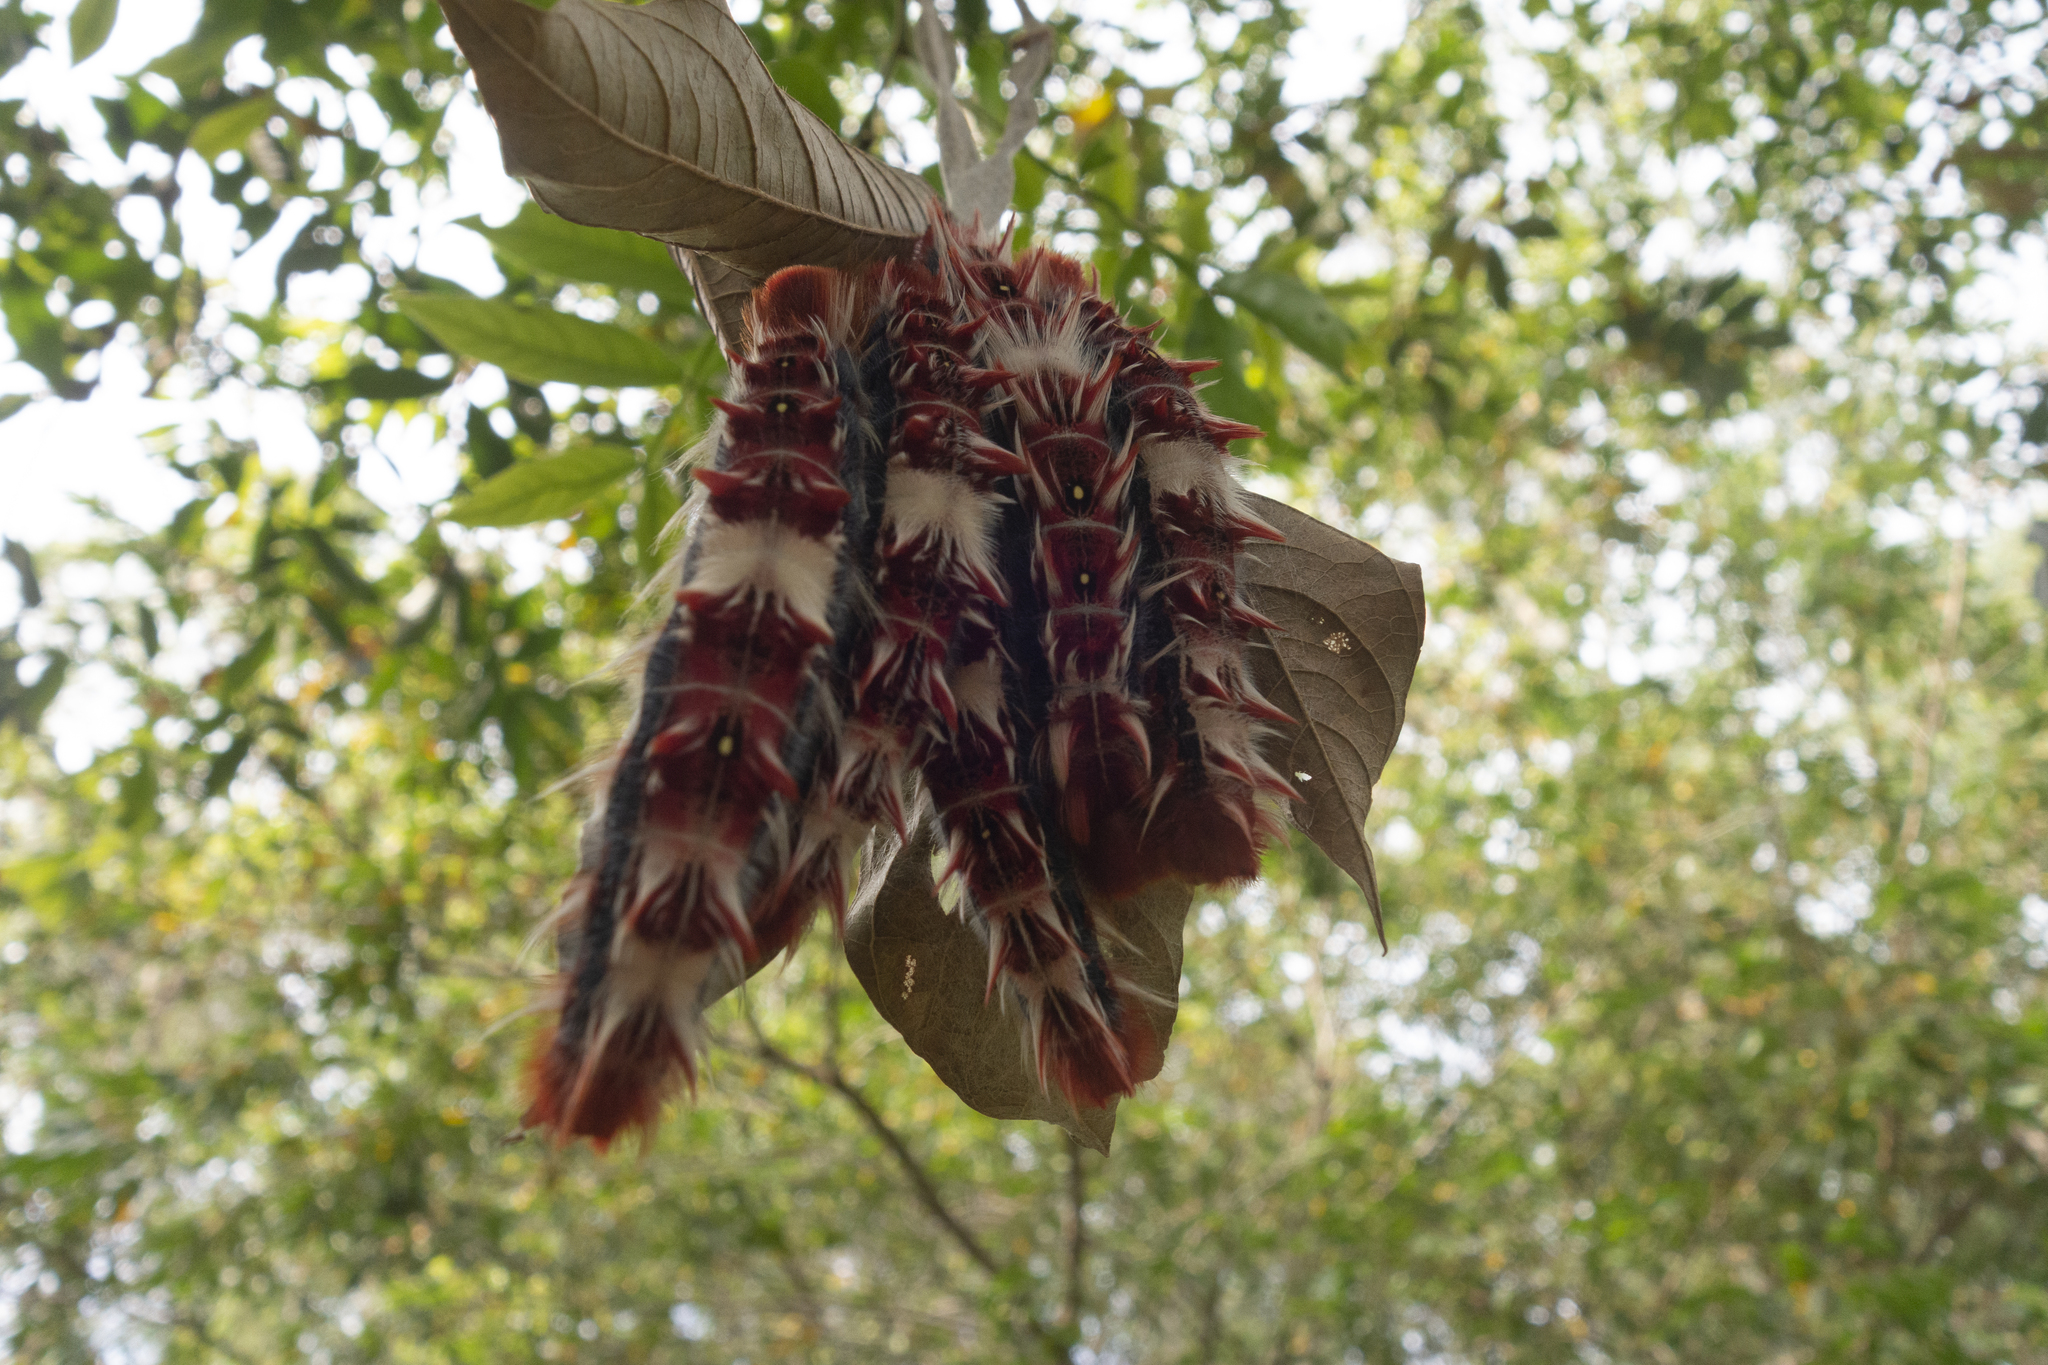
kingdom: Animalia
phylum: Arthropoda
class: Insecta
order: Lepidoptera
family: Nymphalidae
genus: Morpho
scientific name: Morpho epistrophus
